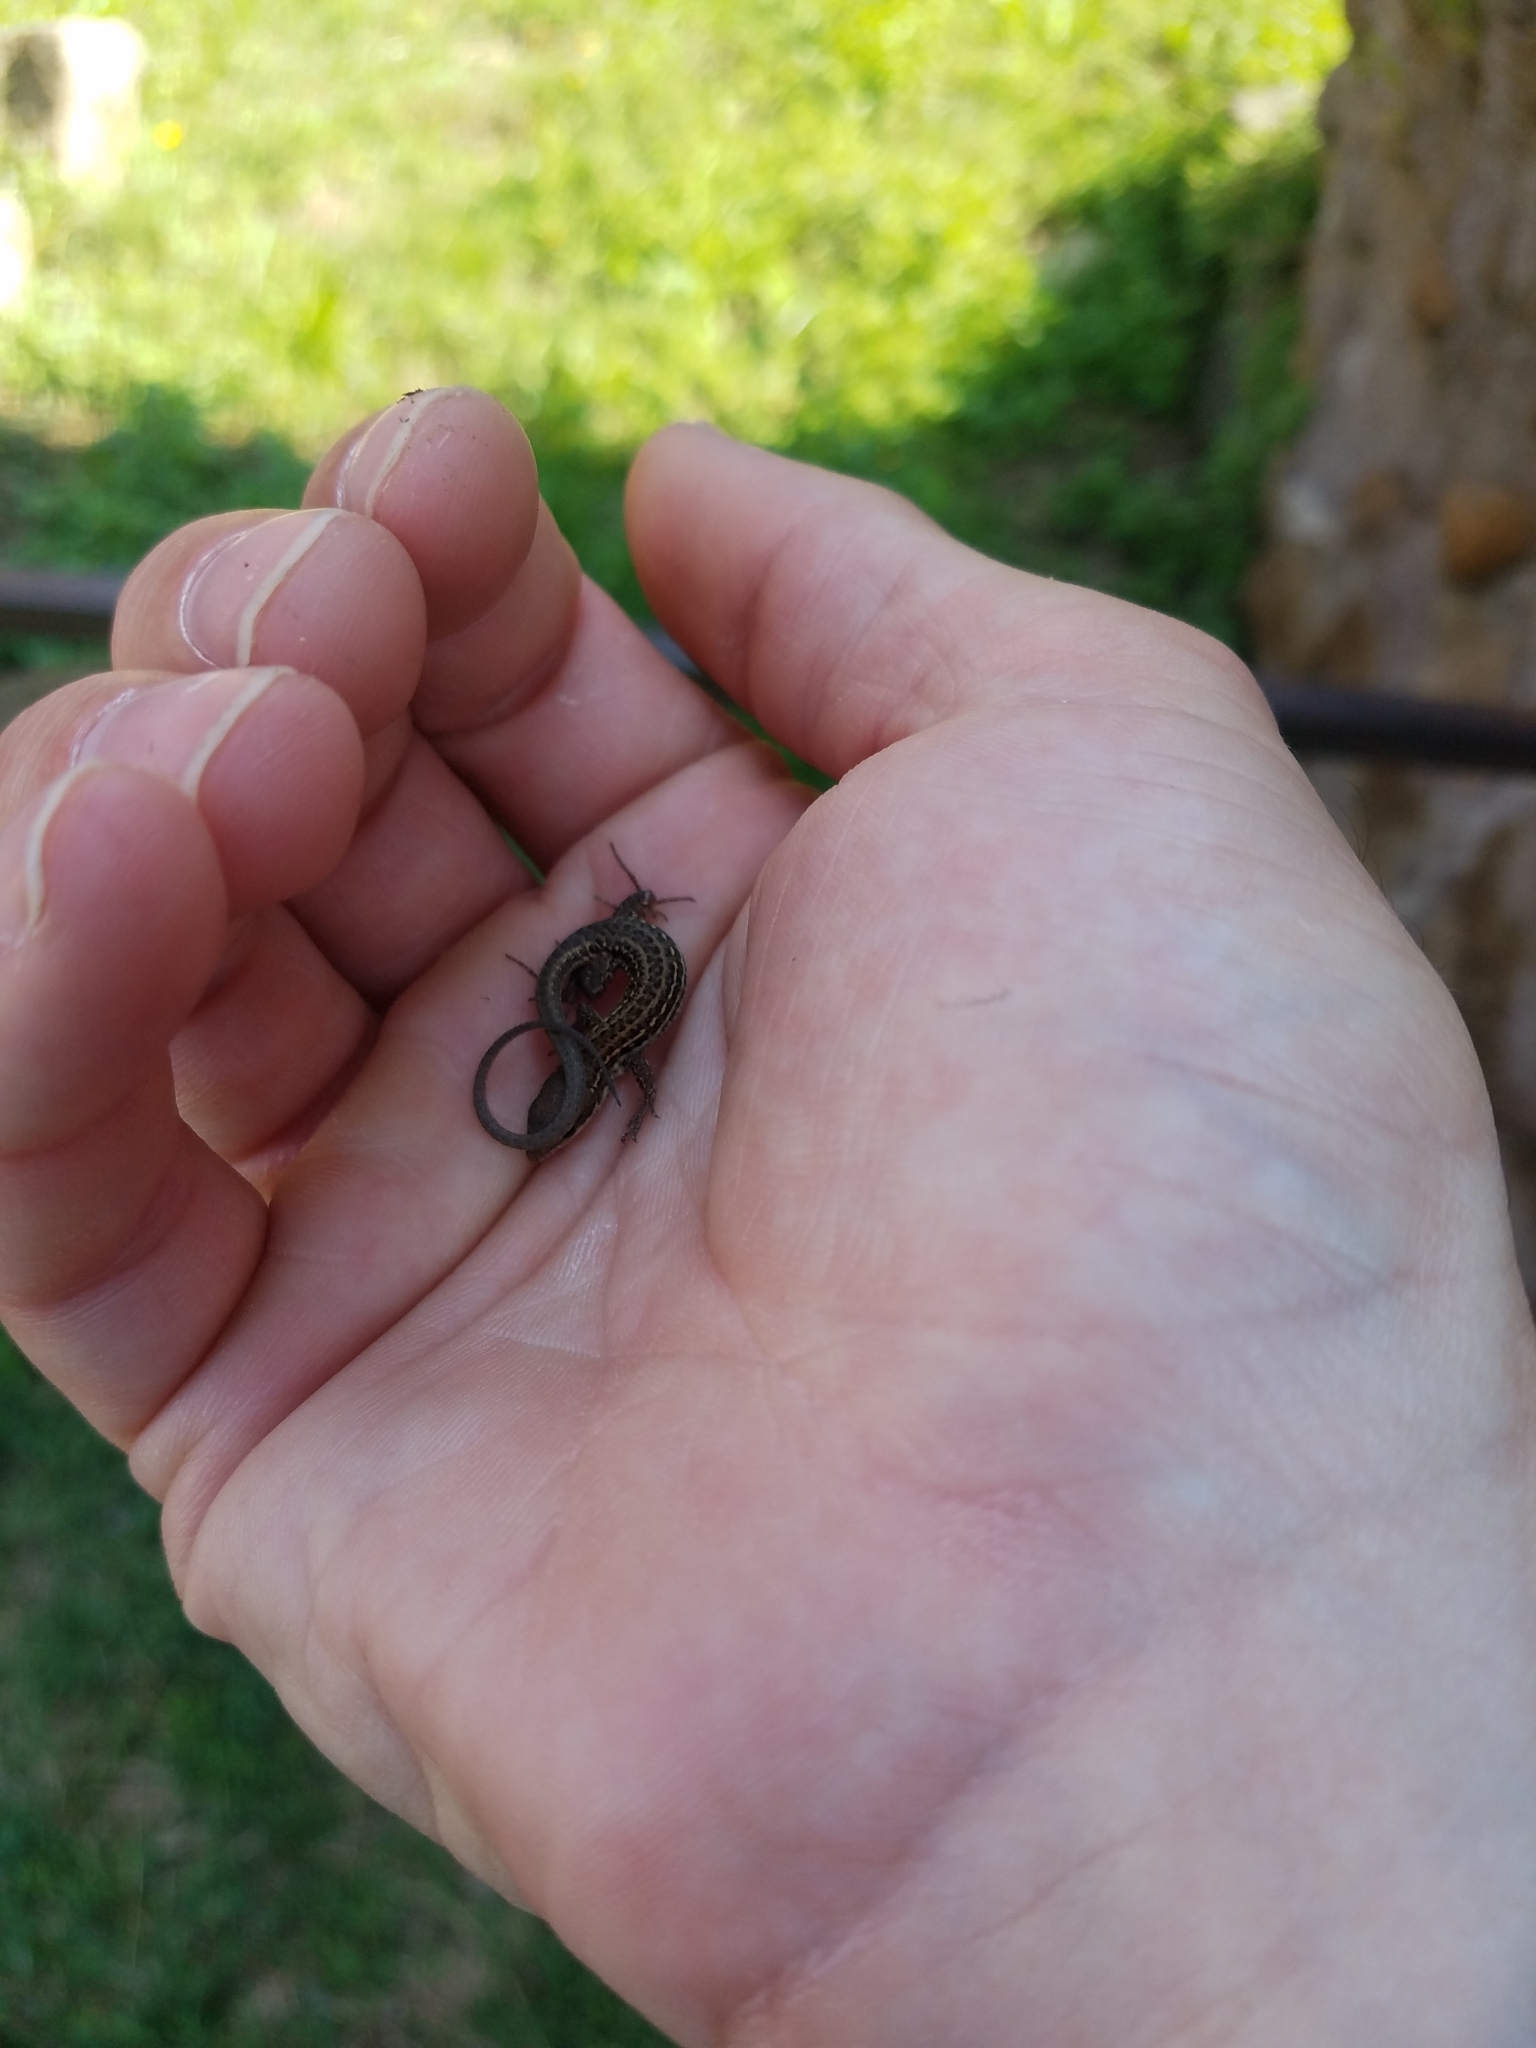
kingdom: Animalia
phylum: Chordata
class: Squamata
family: Lacertidae
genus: Podarcis
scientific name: Podarcis siculus
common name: Italian wall lizard
